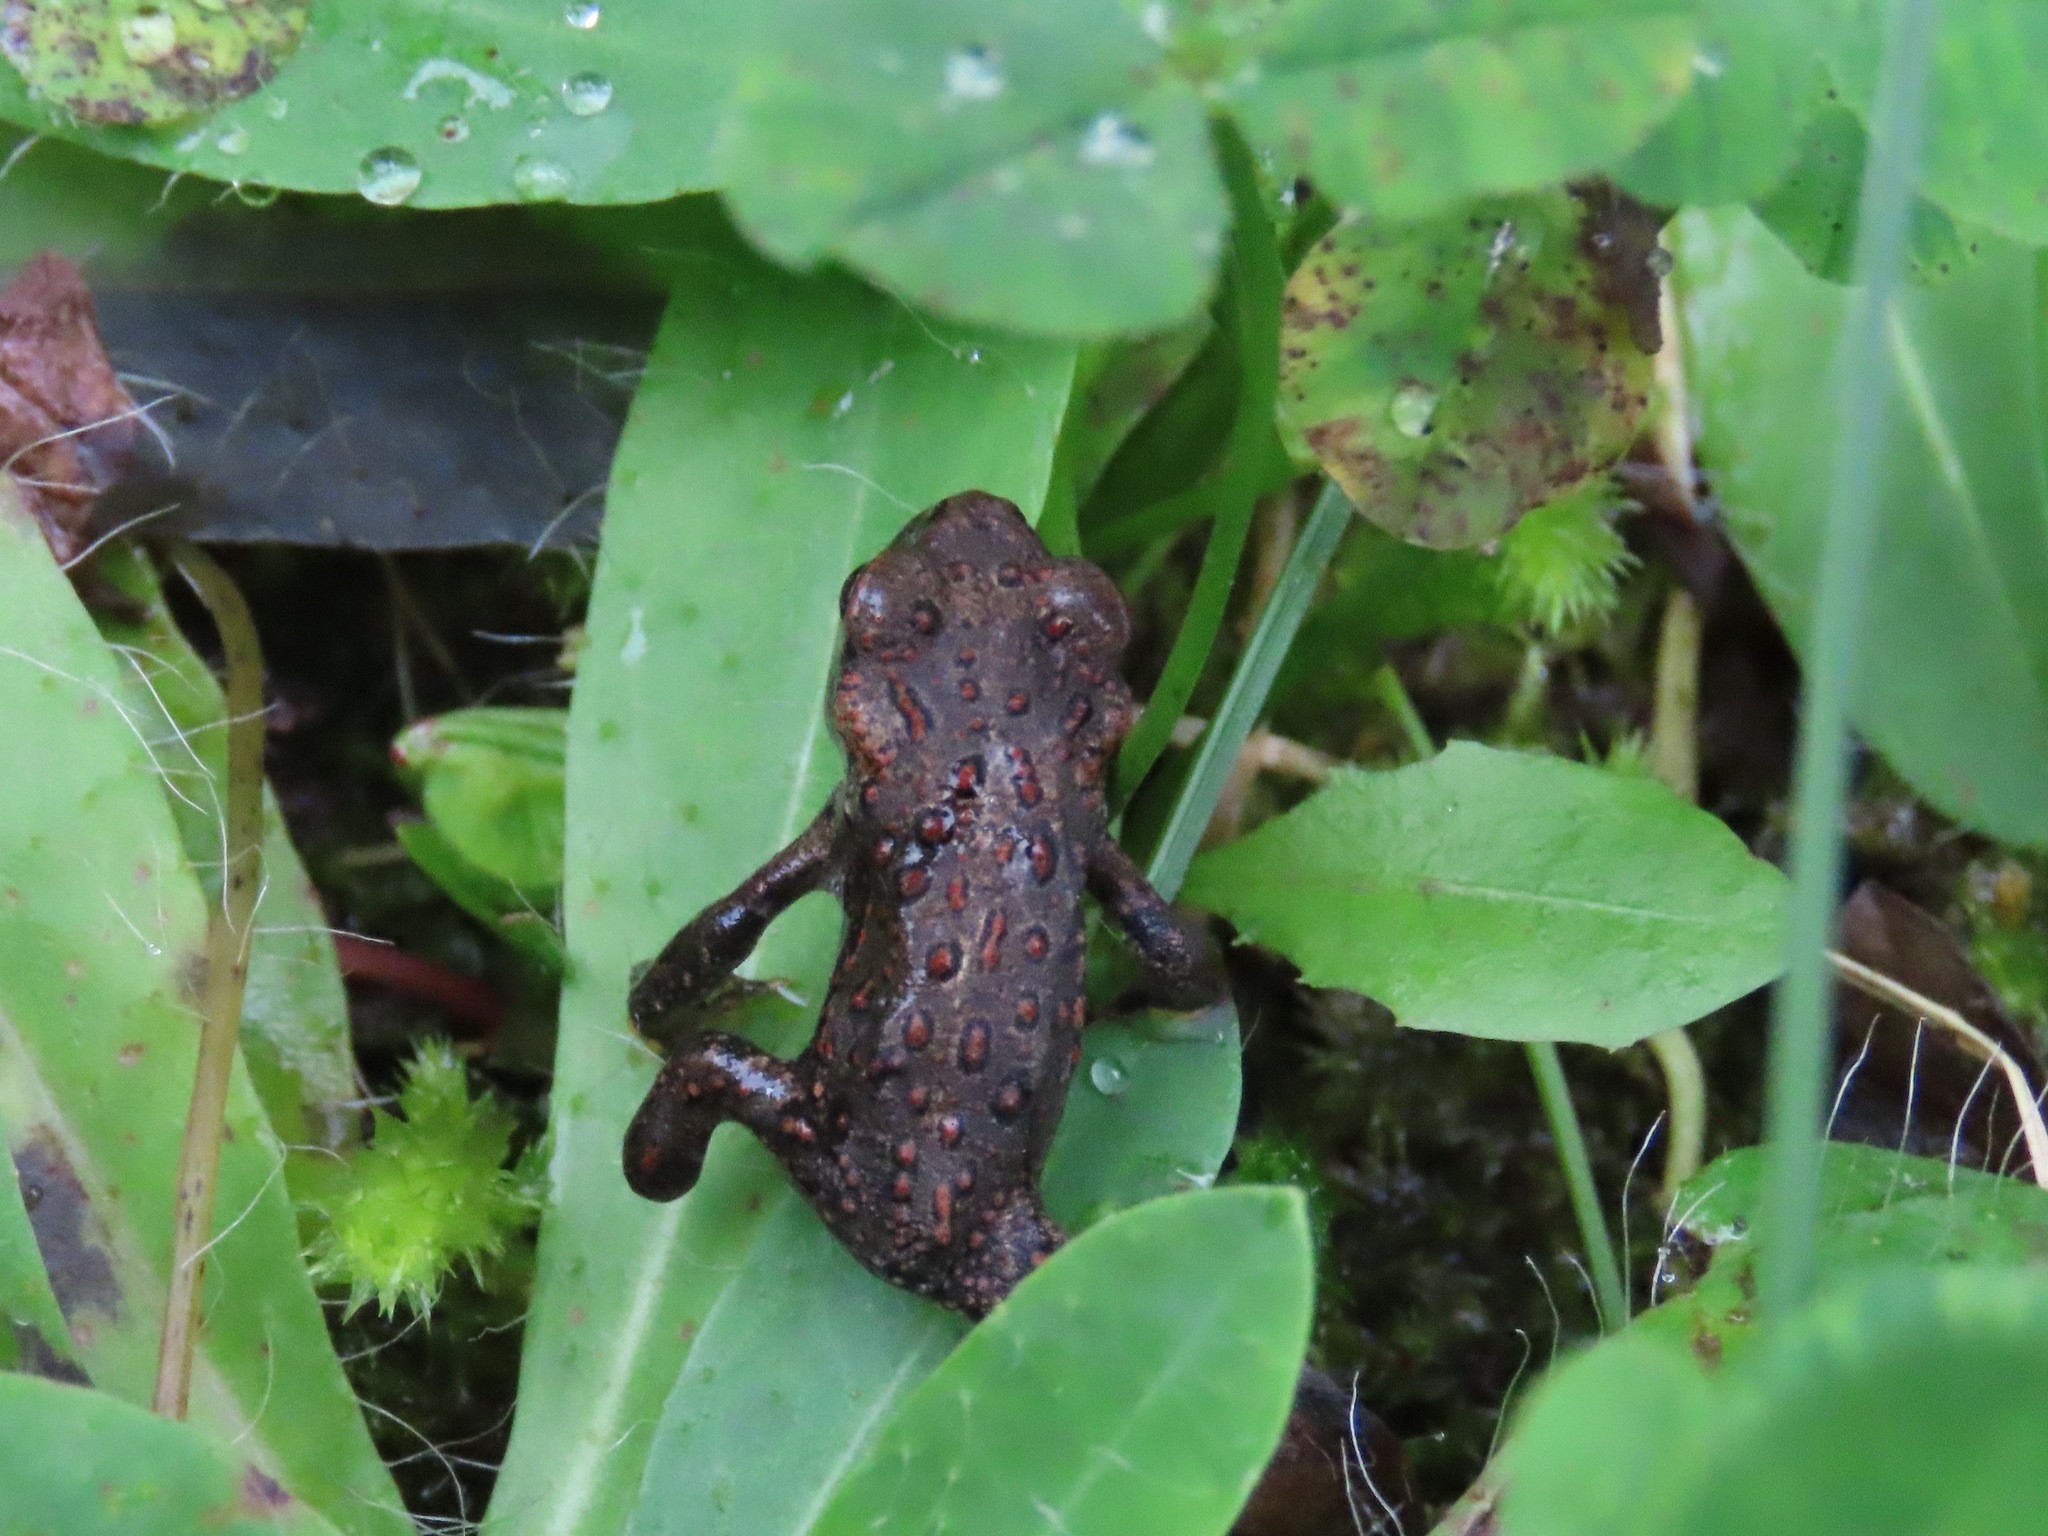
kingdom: Animalia
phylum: Chordata
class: Amphibia
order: Anura
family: Bufonidae
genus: Anaxyrus
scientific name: Anaxyrus boreas
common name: Western toad
